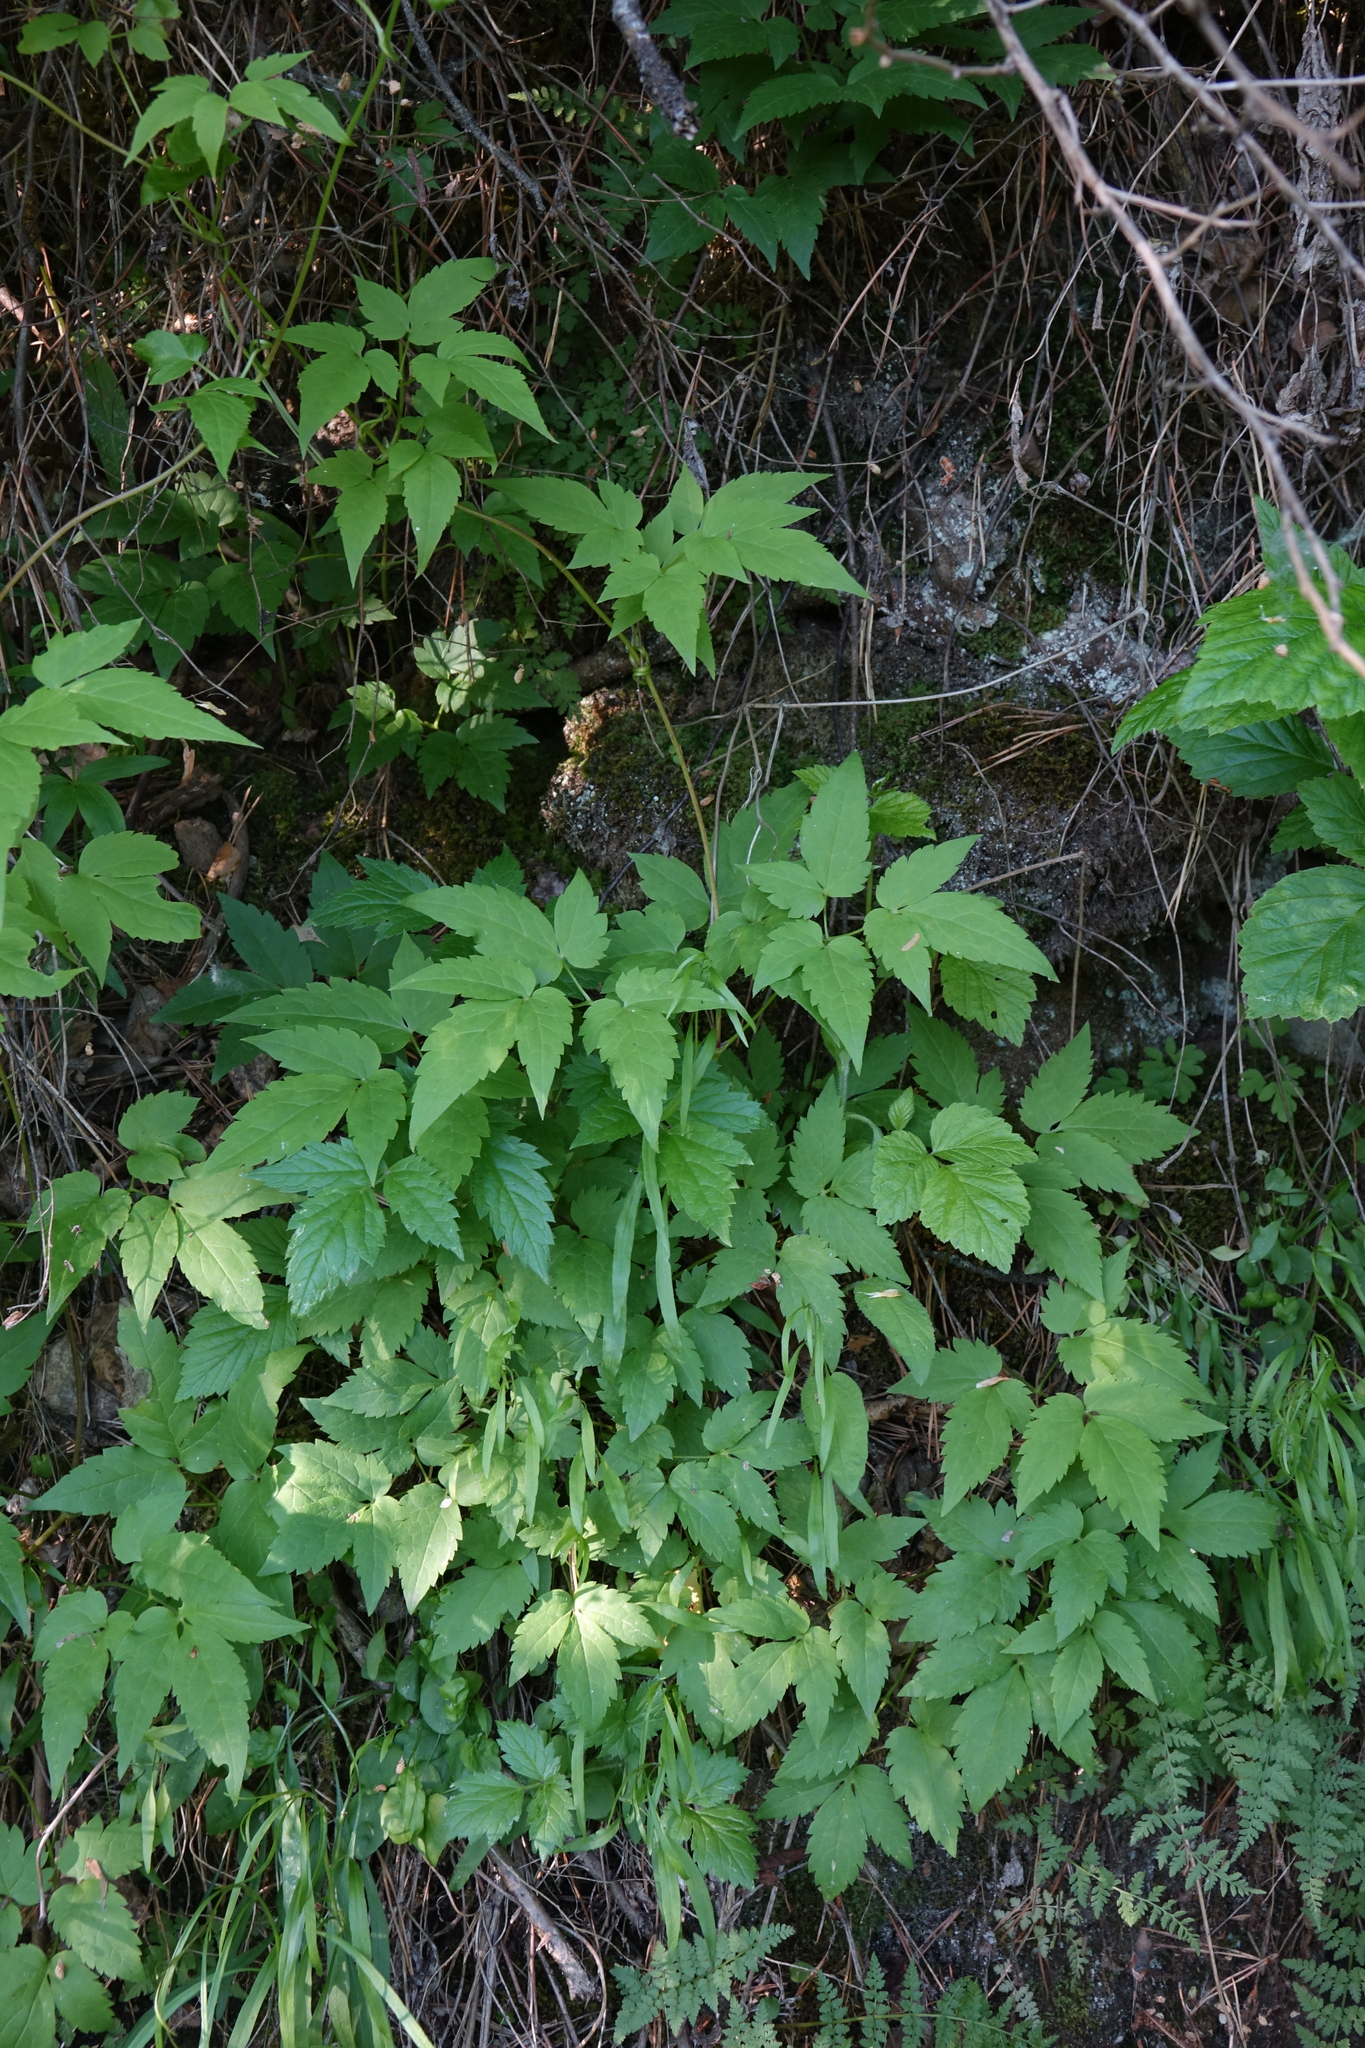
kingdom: Plantae
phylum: Tracheophyta
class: Magnoliopsida
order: Ranunculales
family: Ranunculaceae
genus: Clematis
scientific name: Clematis sibirica
